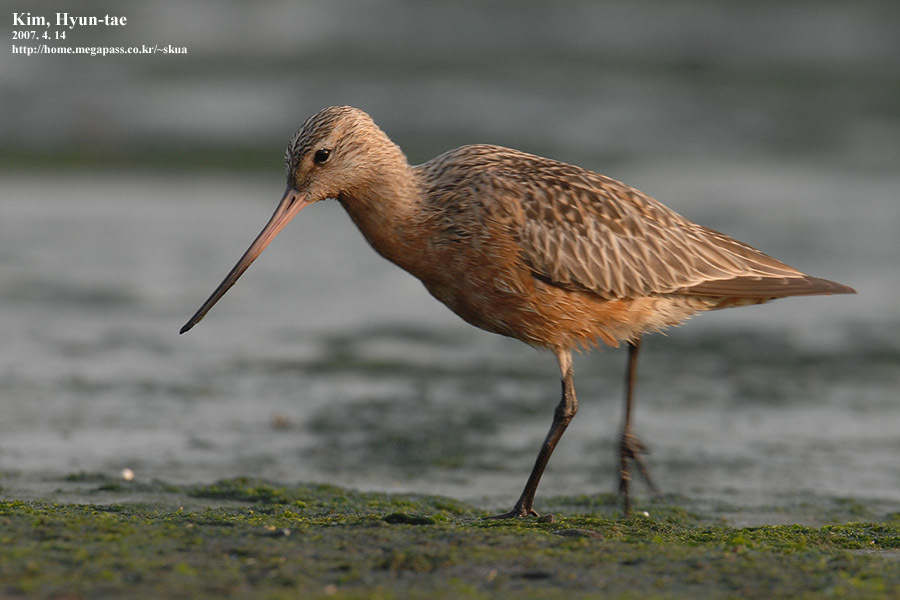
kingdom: Animalia
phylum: Chordata
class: Aves
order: Charadriiformes
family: Scolopacidae
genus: Limosa
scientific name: Limosa lapponica
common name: Bar-tailed godwit
